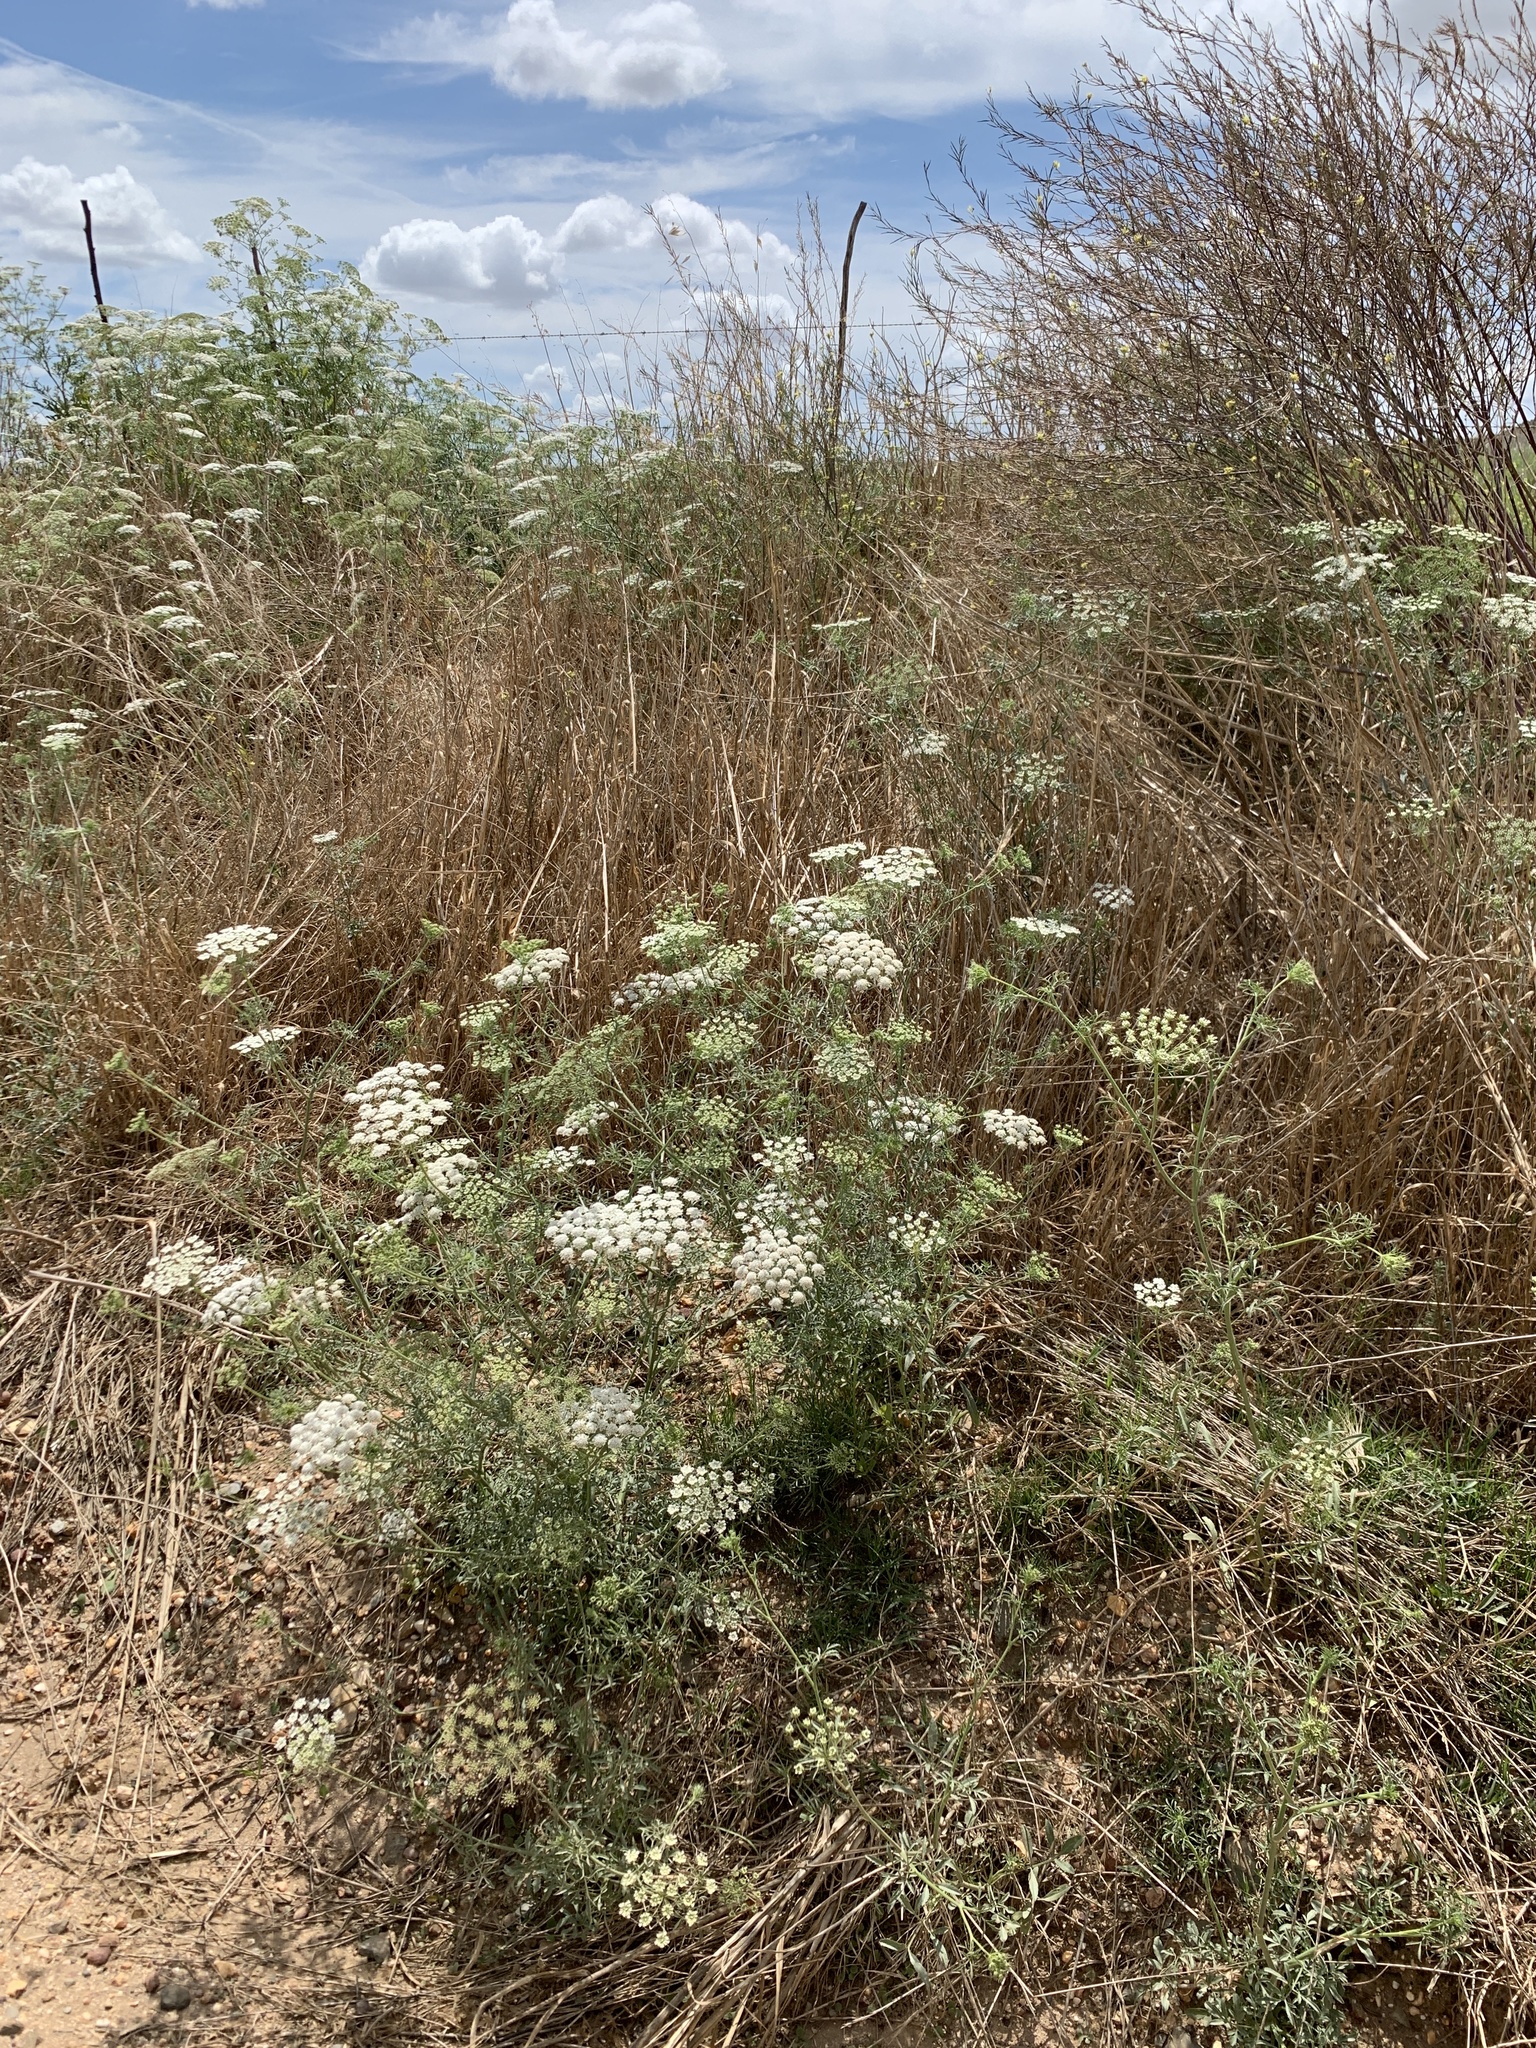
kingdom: Plantae
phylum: Tracheophyta
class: Magnoliopsida
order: Apiales
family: Apiaceae
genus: Ammi
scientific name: Ammi majus
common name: Bullwort
